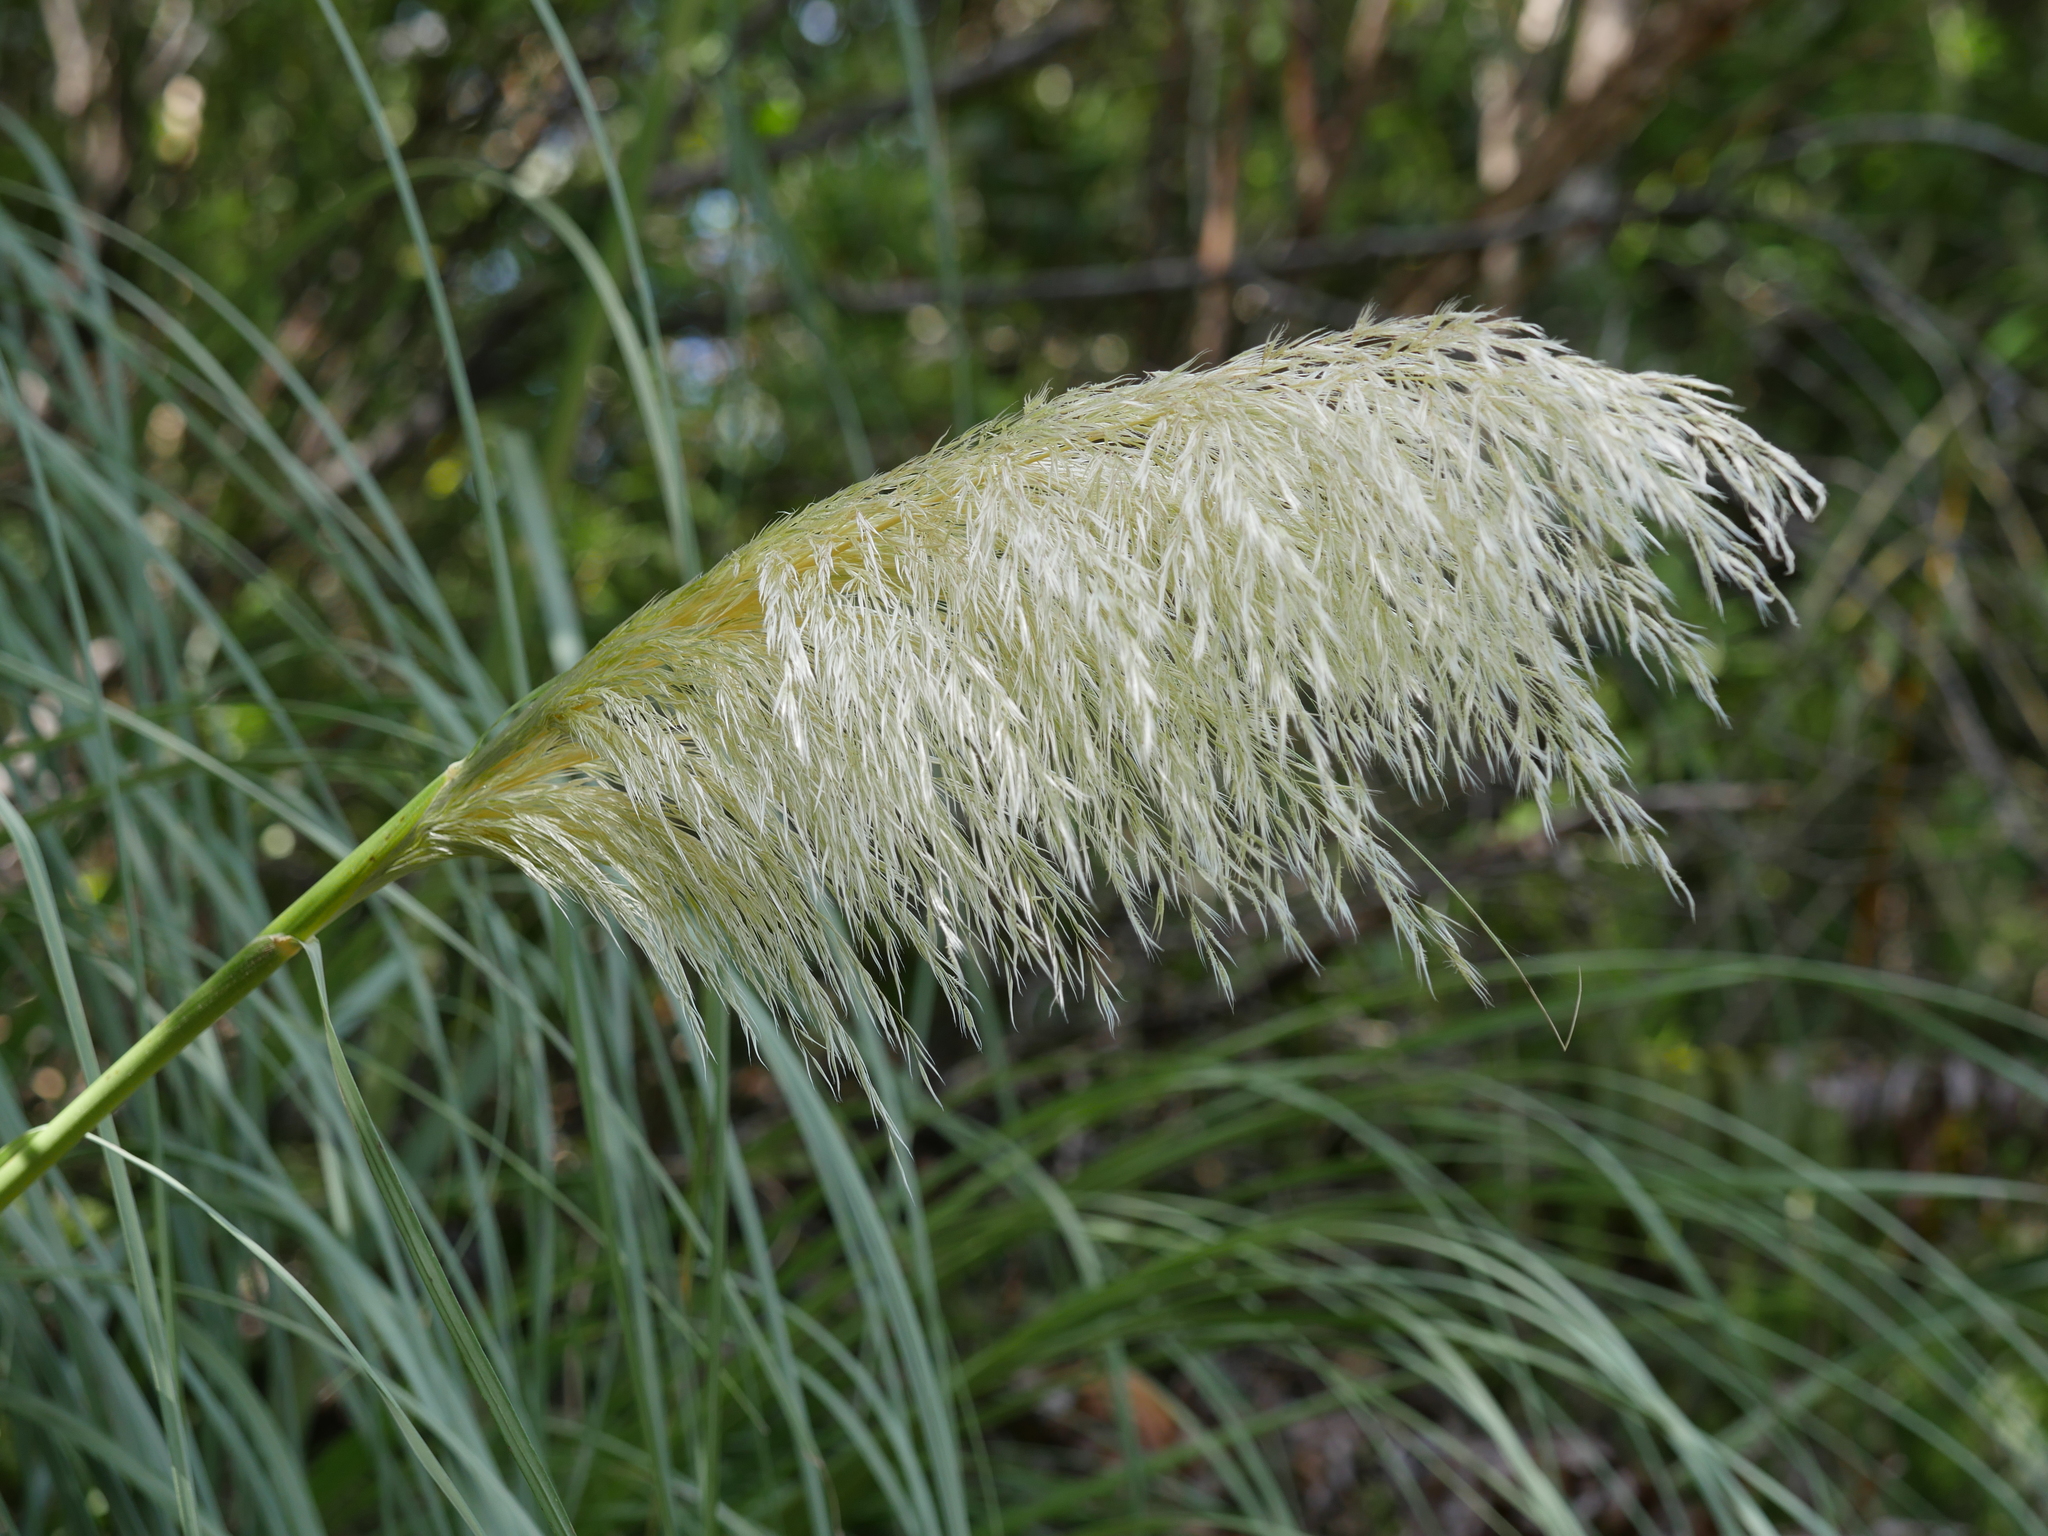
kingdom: Plantae
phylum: Tracheophyta
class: Liliopsida
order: Poales
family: Poaceae
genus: Cortaderia
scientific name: Cortaderia selloana
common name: Uruguayan pampas grass
